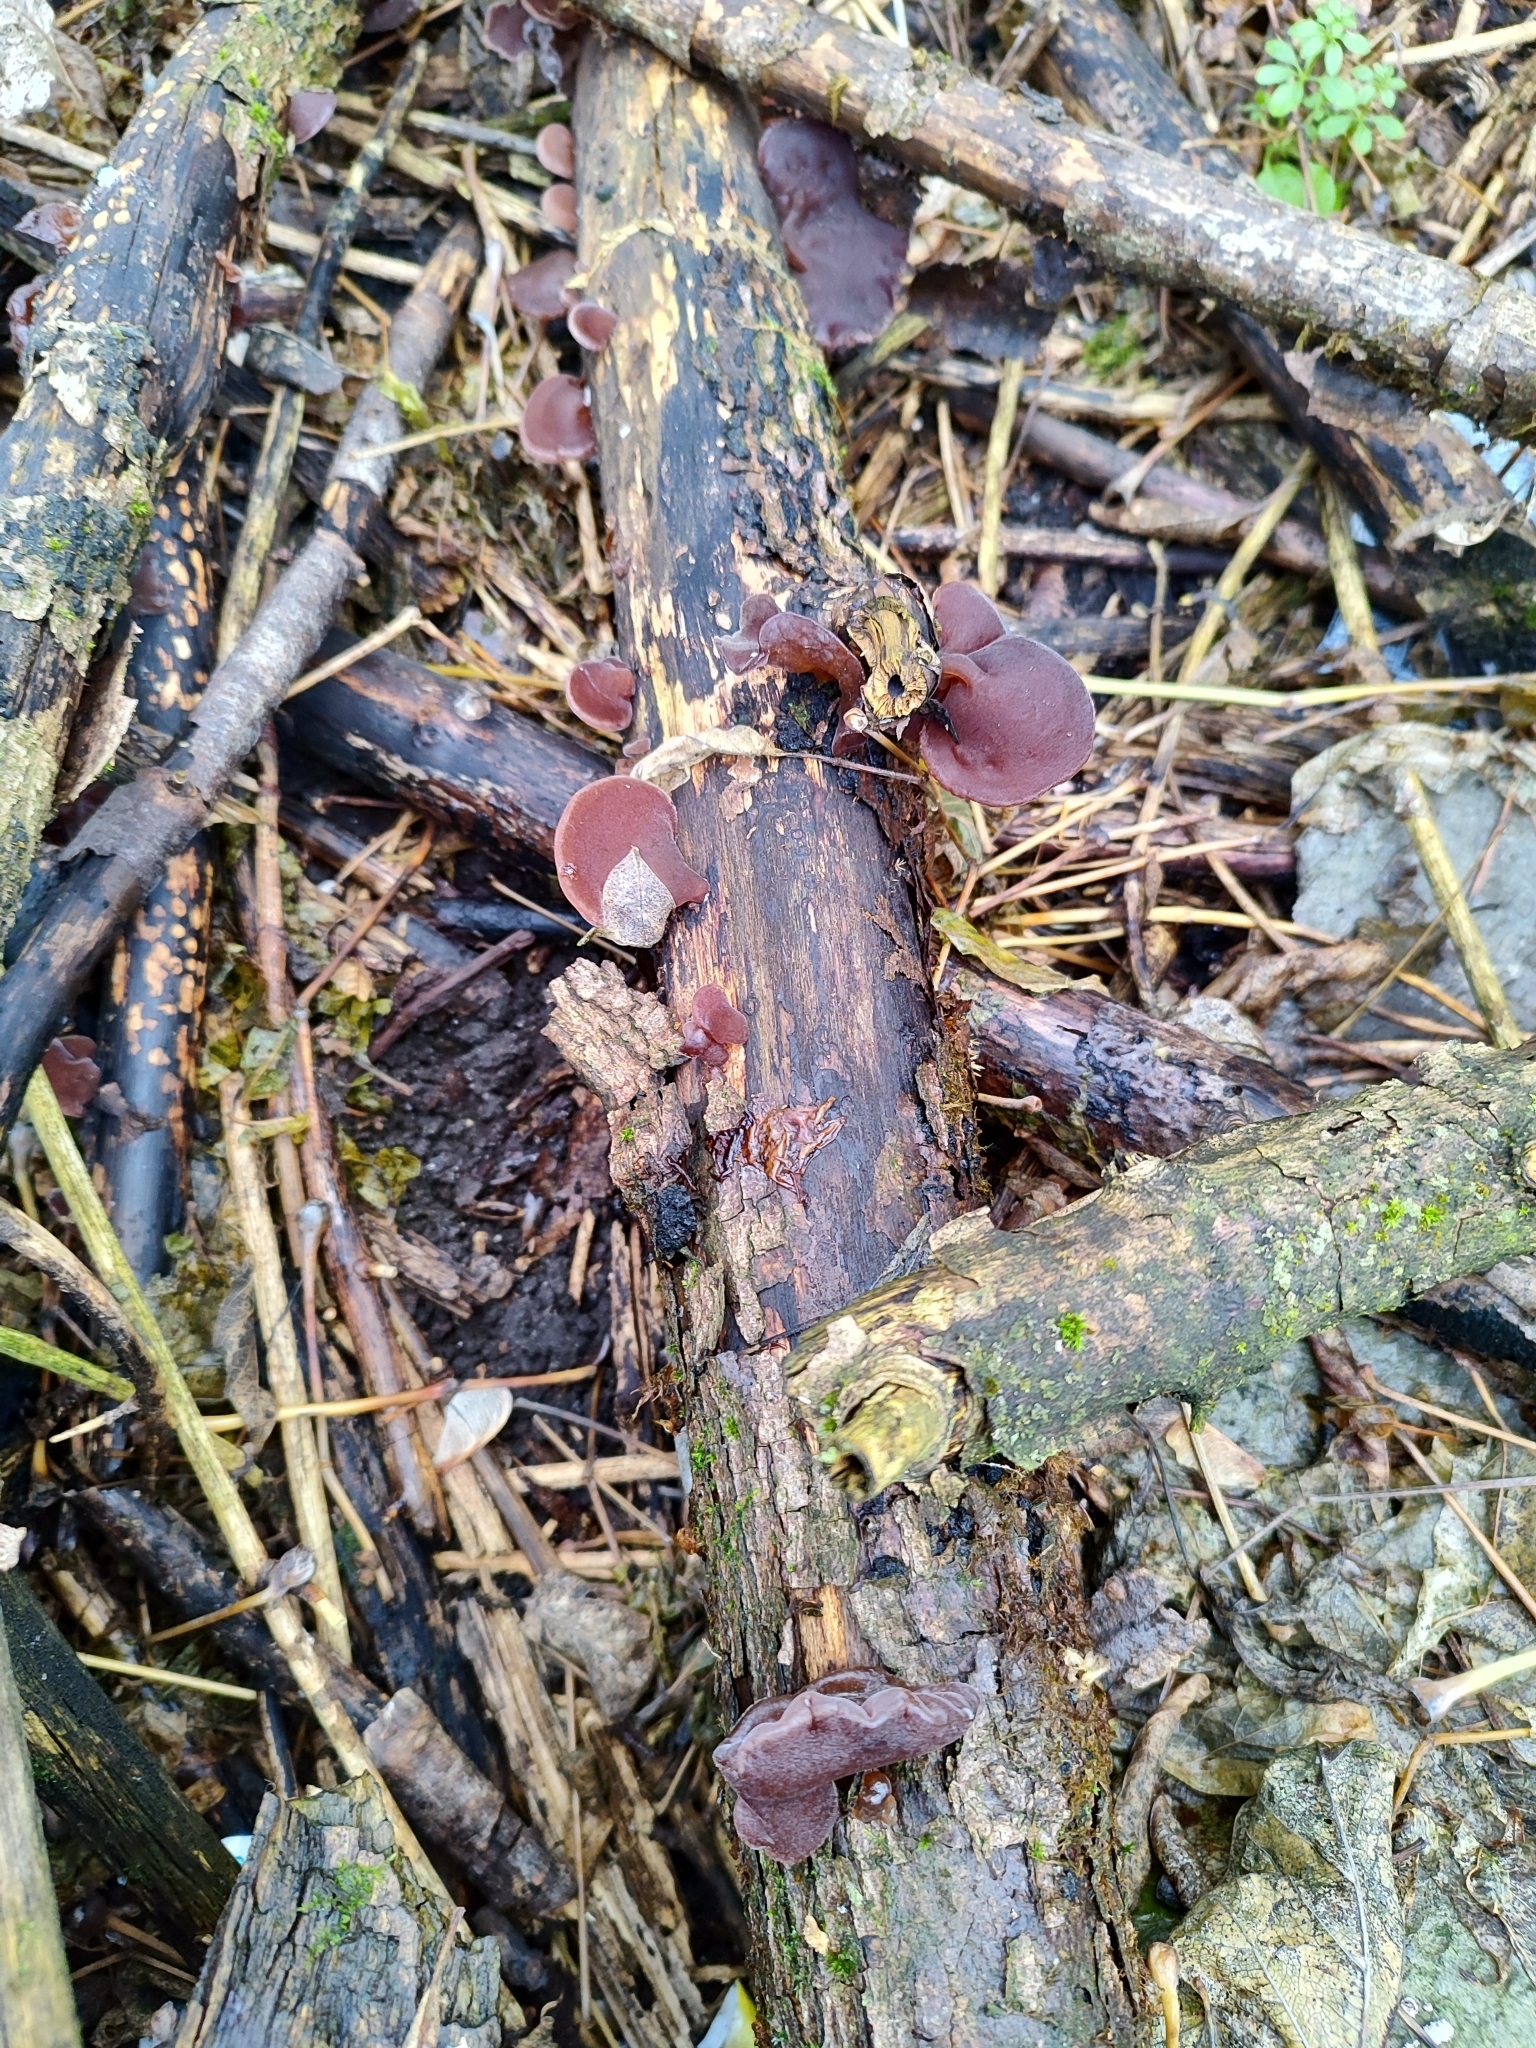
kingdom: Fungi
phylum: Basidiomycota
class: Agaricomycetes
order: Auriculariales
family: Auriculariaceae
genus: Auricularia
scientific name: Auricularia auricula-judae
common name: Jelly ear
